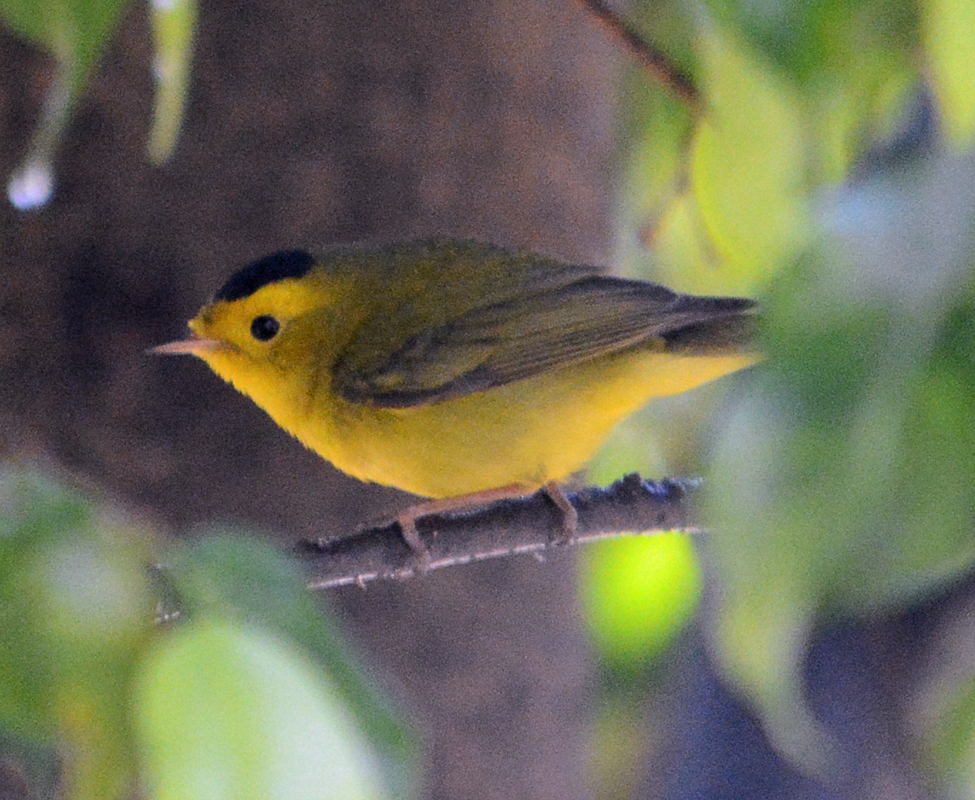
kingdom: Animalia
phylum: Chordata
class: Aves
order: Passeriformes
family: Parulidae
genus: Cardellina
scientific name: Cardellina pusilla
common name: Wilson's warbler
